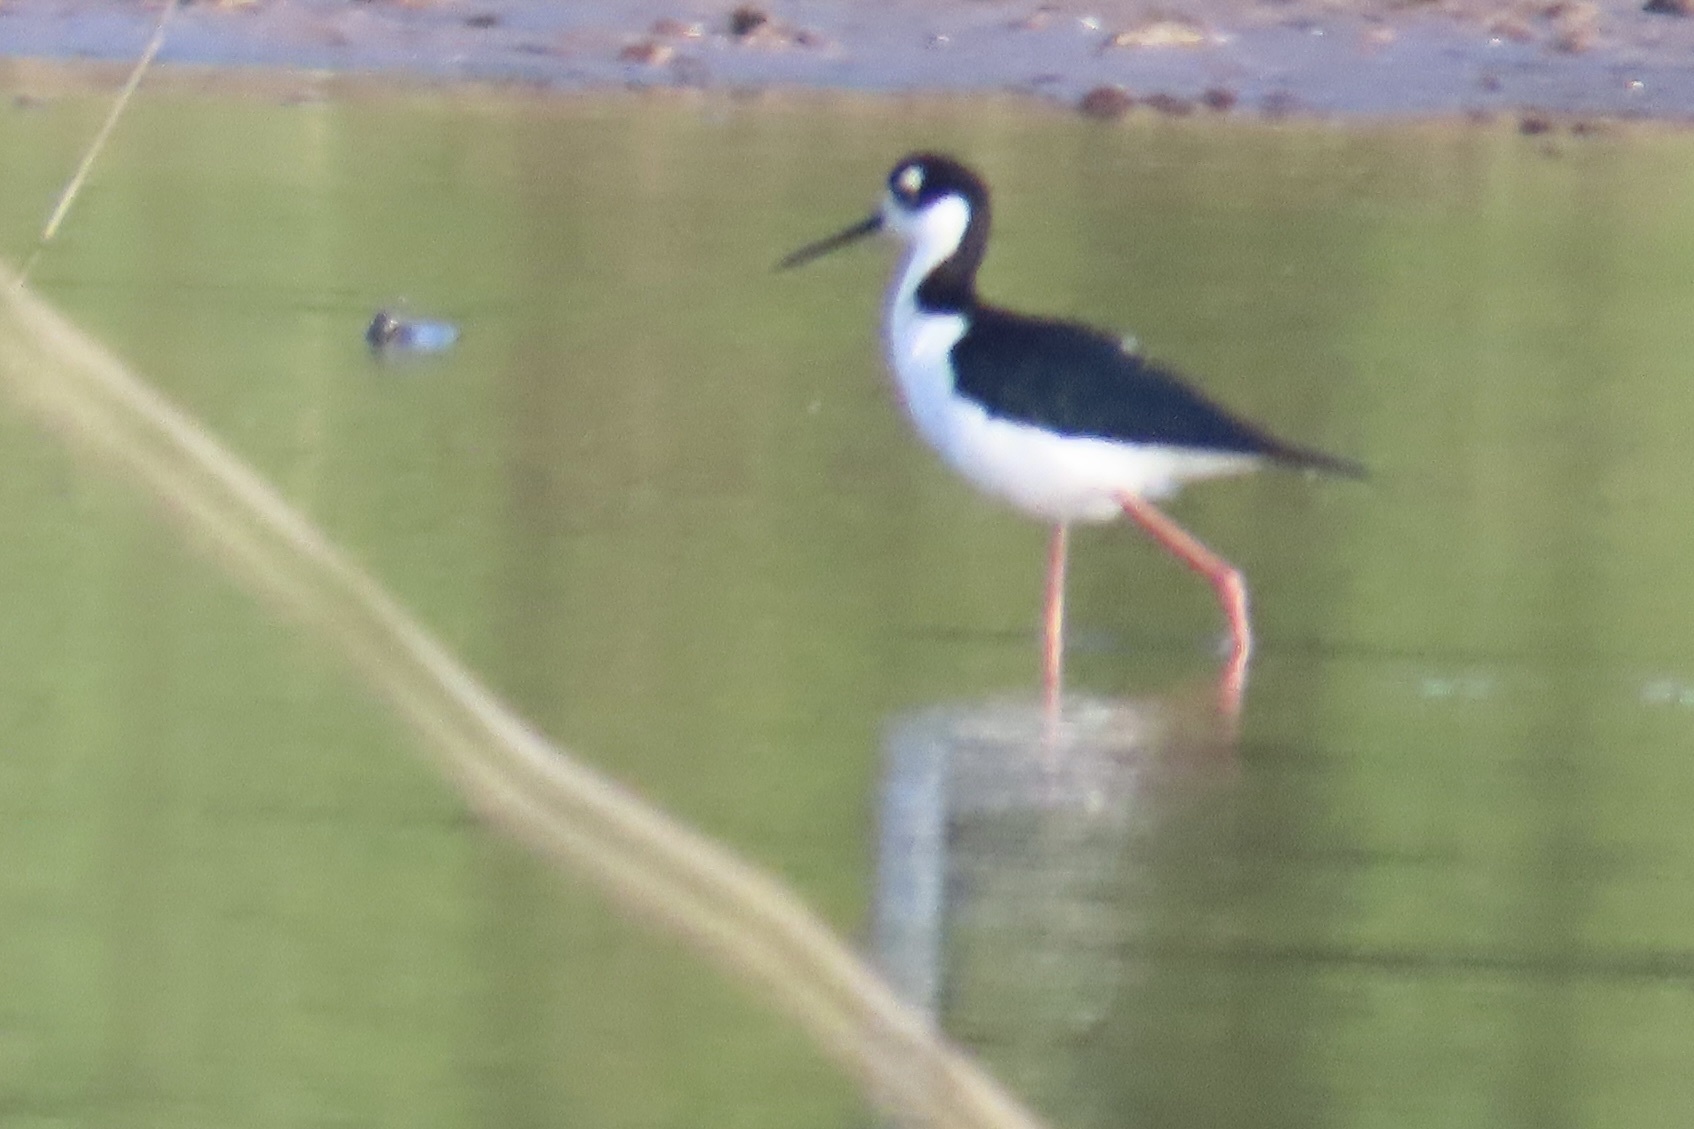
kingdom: Animalia
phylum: Chordata
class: Aves
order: Charadriiformes
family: Recurvirostridae
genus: Himantopus
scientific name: Himantopus mexicanus
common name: Black-necked stilt
